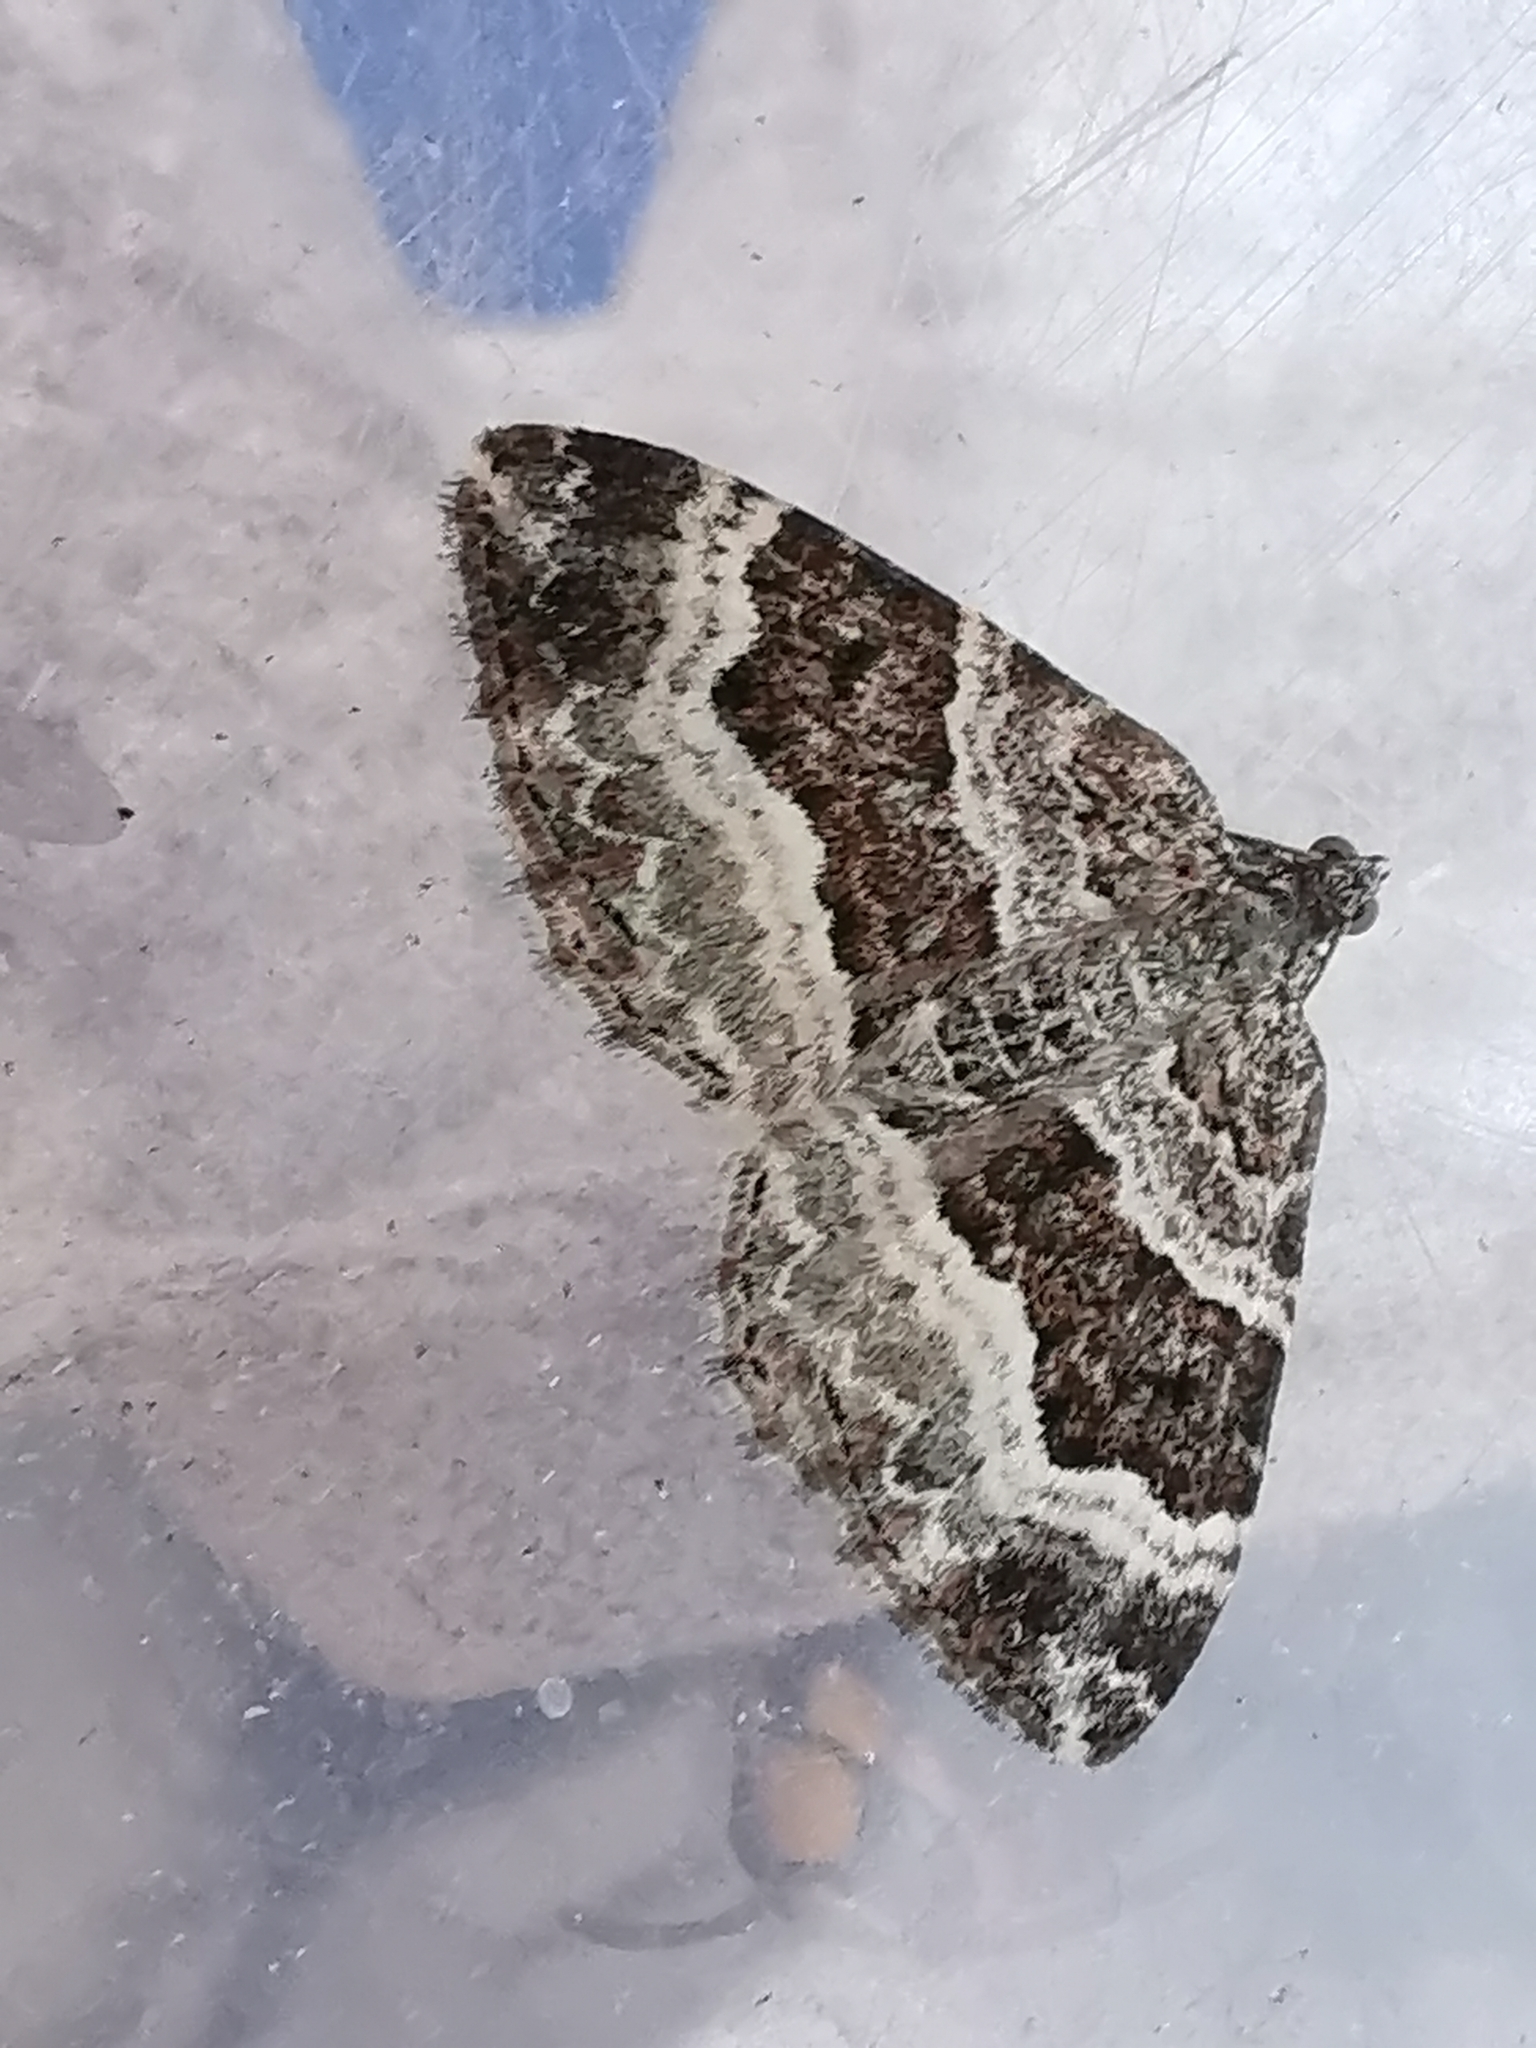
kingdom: Animalia
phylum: Arthropoda
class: Insecta
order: Lepidoptera
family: Geometridae
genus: Epirrhoe
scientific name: Epirrhoe alternata
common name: Common carpet
